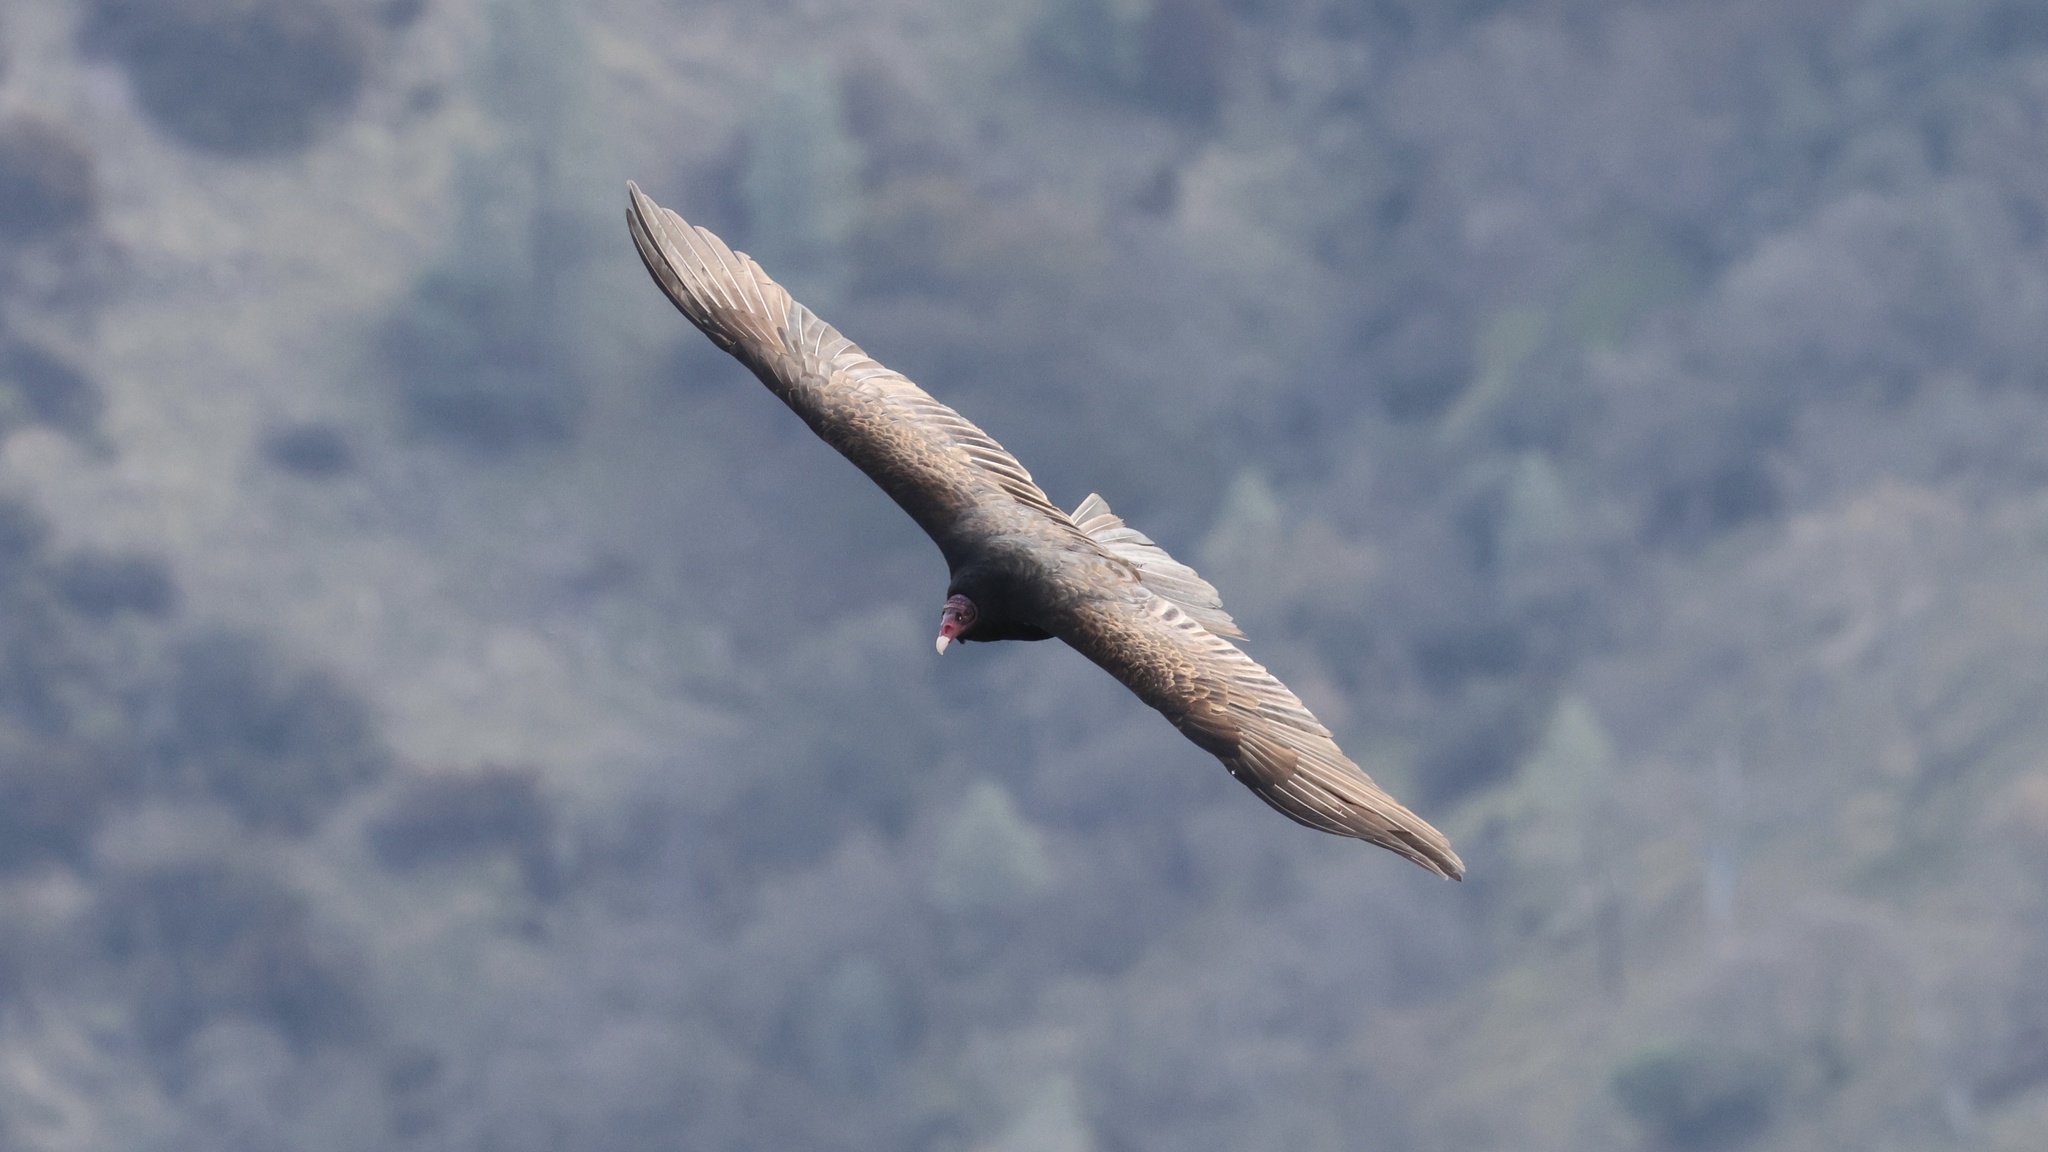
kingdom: Animalia
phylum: Chordata
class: Aves
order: Accipitriformes
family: Cathartidae
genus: Cathartes
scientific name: Cathartes aura
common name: Turkey vulture
